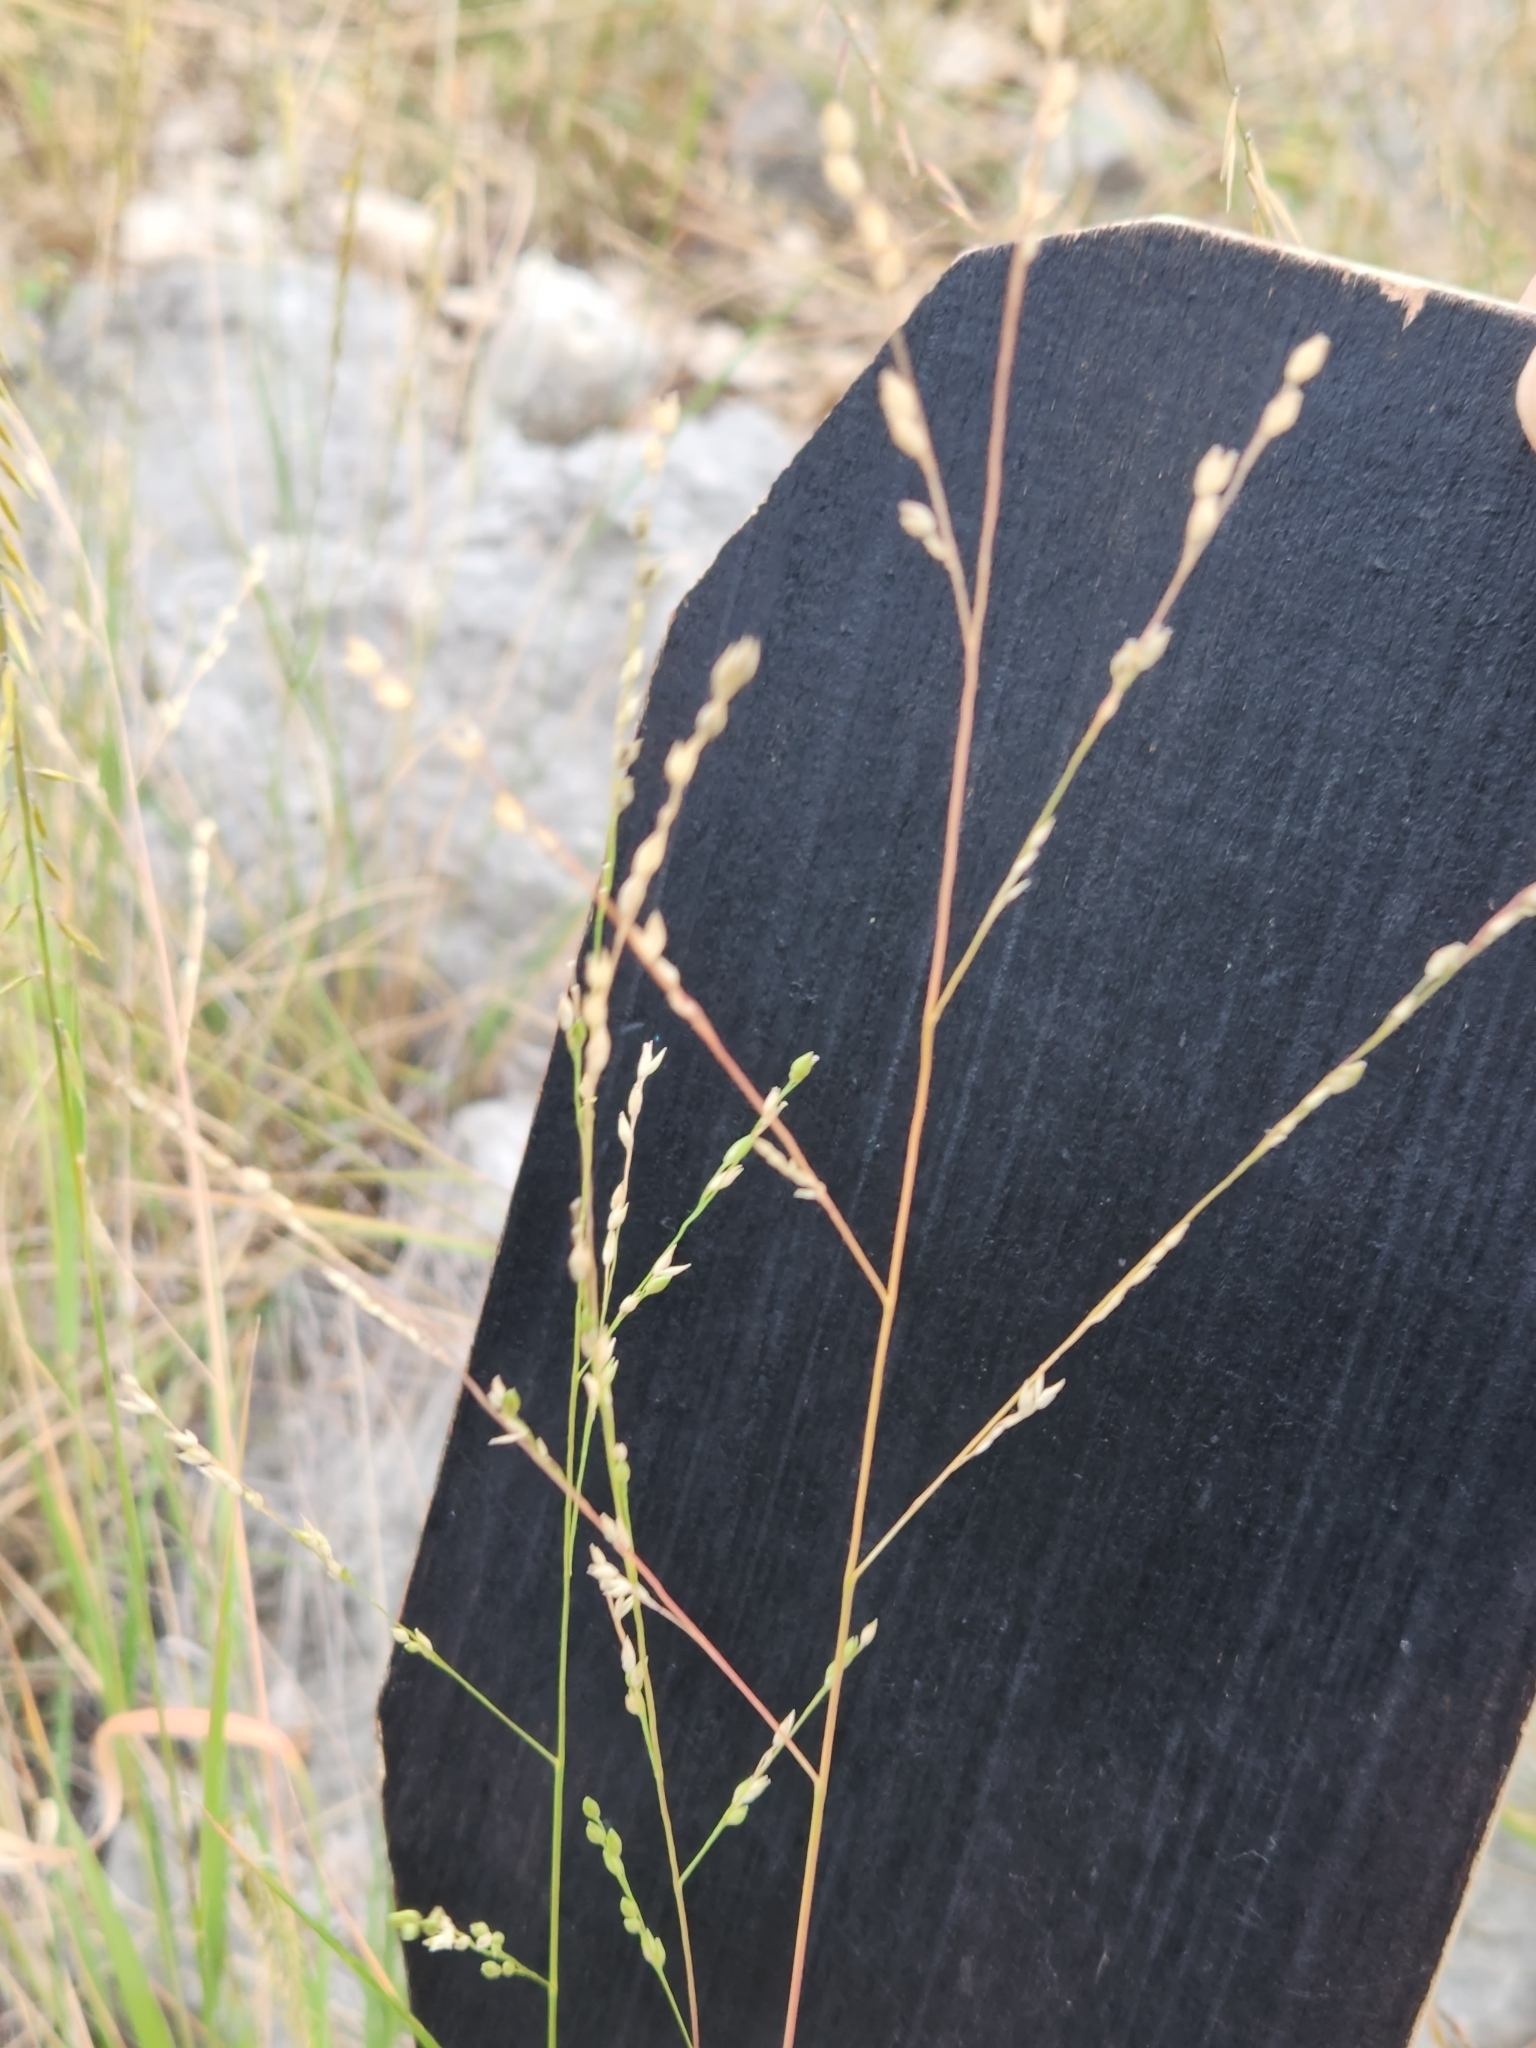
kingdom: Plantae
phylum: Tracheophyta
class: Liliopsida
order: Poales
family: Poaceae
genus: Panicum
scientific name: Panicum hallii
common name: Hall's witchgrass
